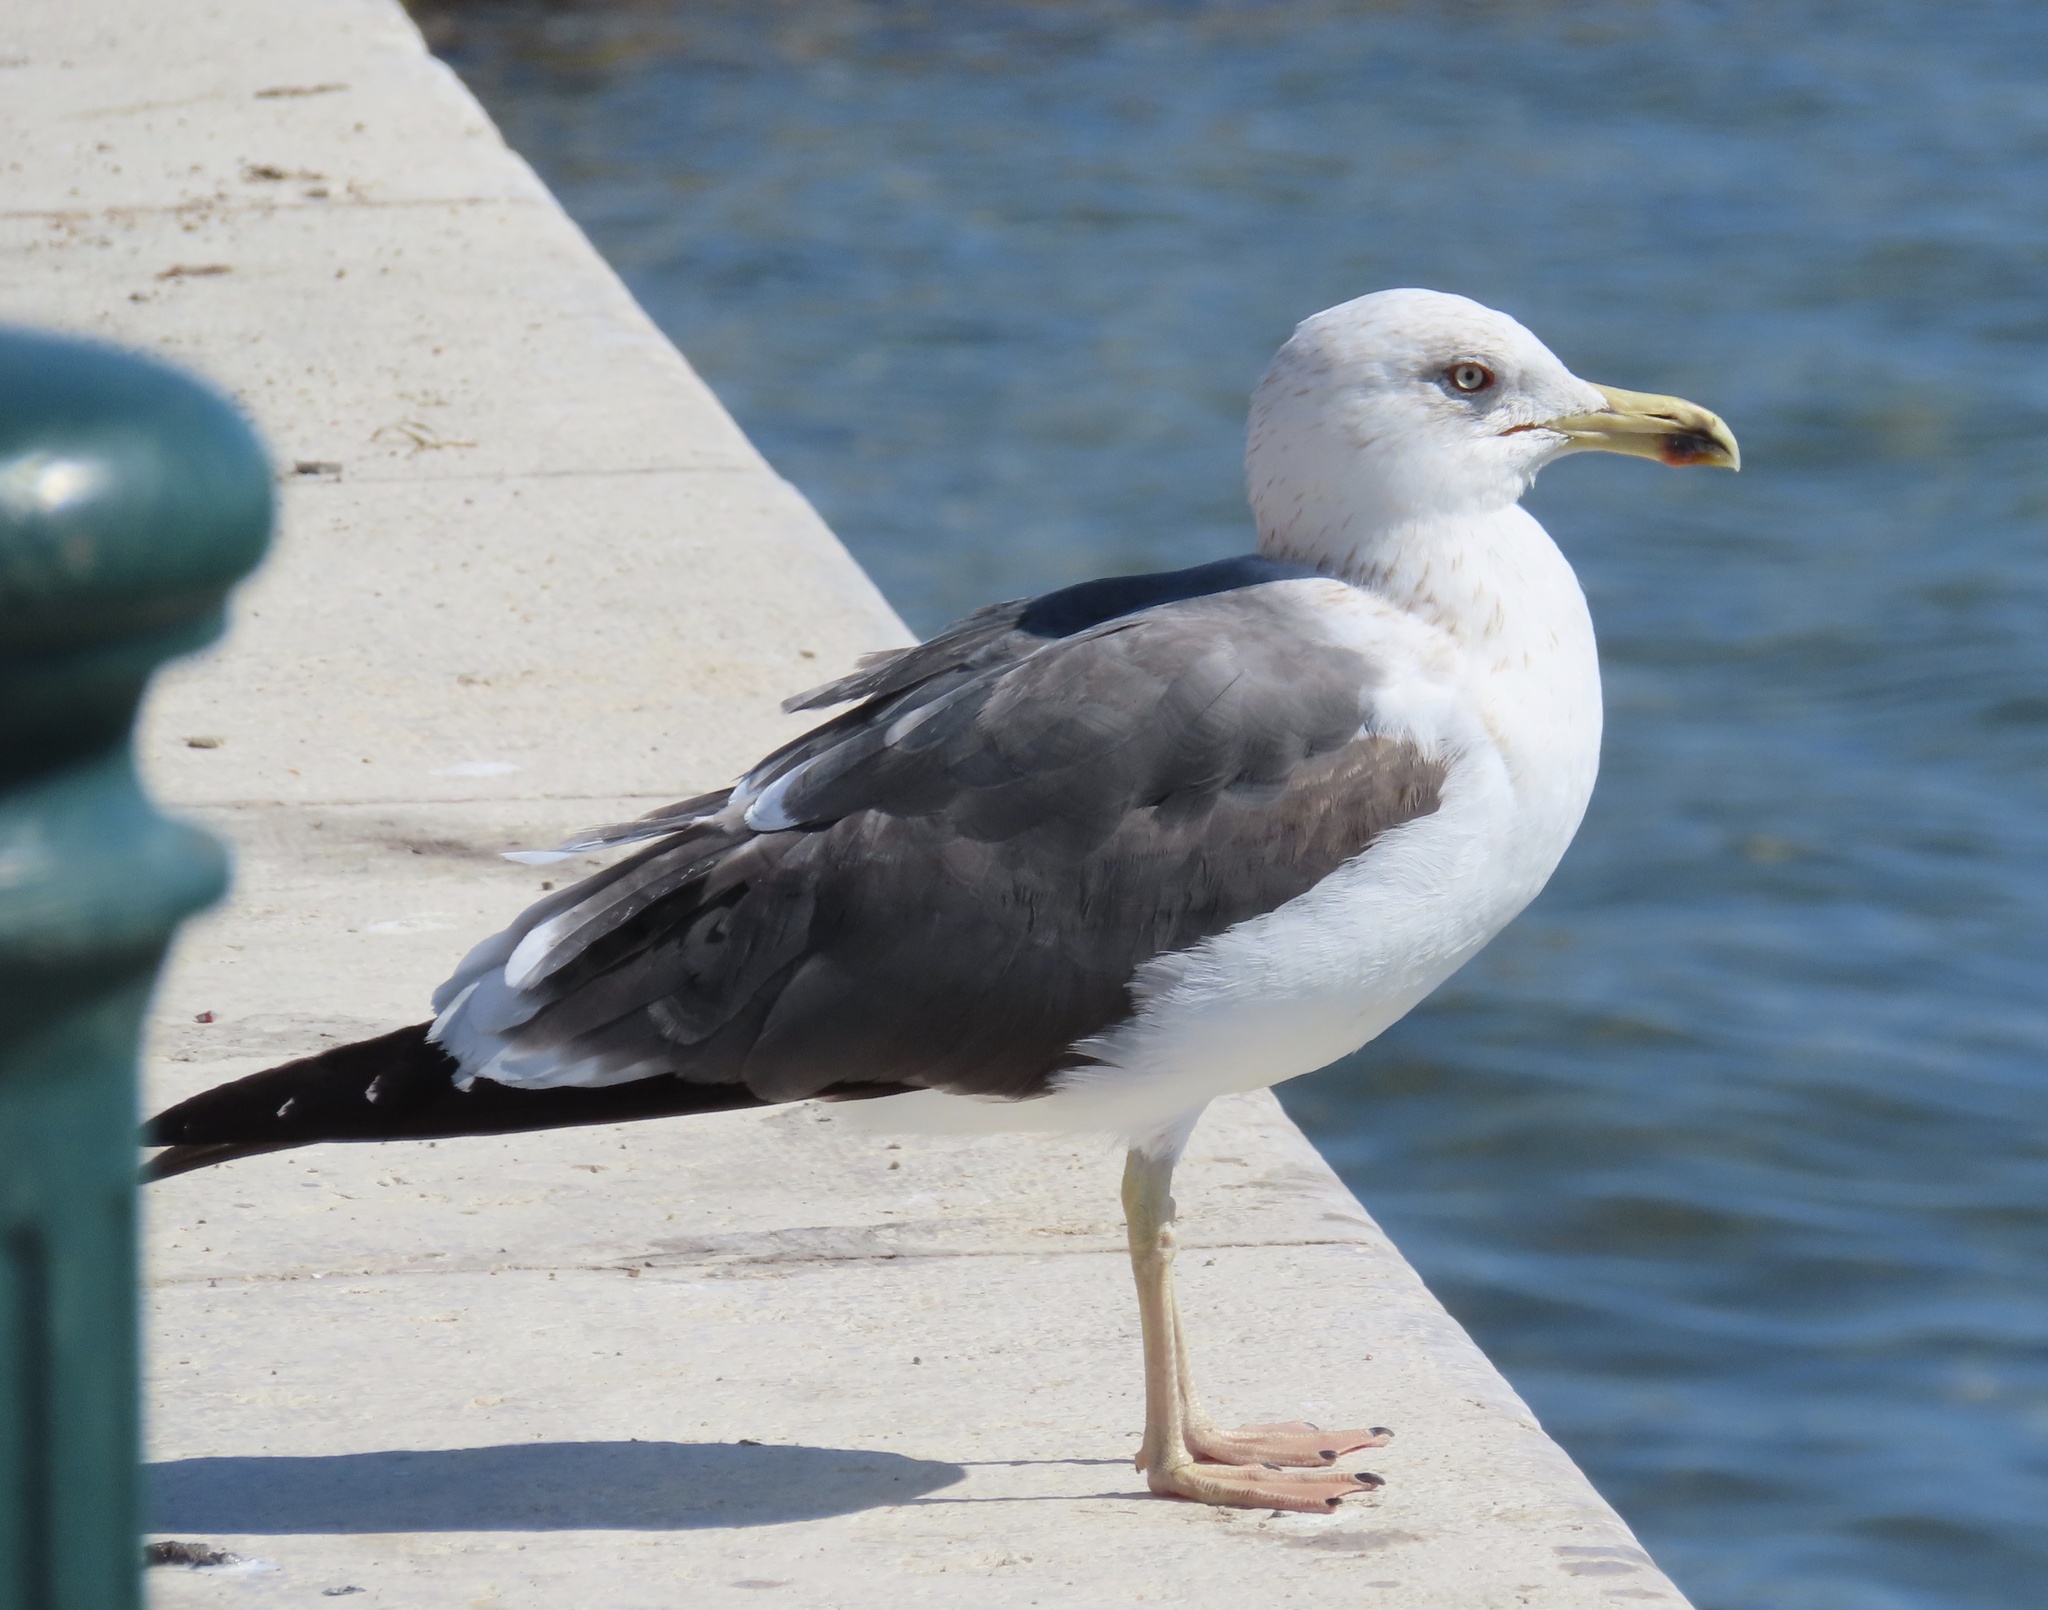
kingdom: Animalia
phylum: Chordata
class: Aves
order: Charadriiformes
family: Laridae
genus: Larus
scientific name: Larus fuscus
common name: Lesser black-backed gull
